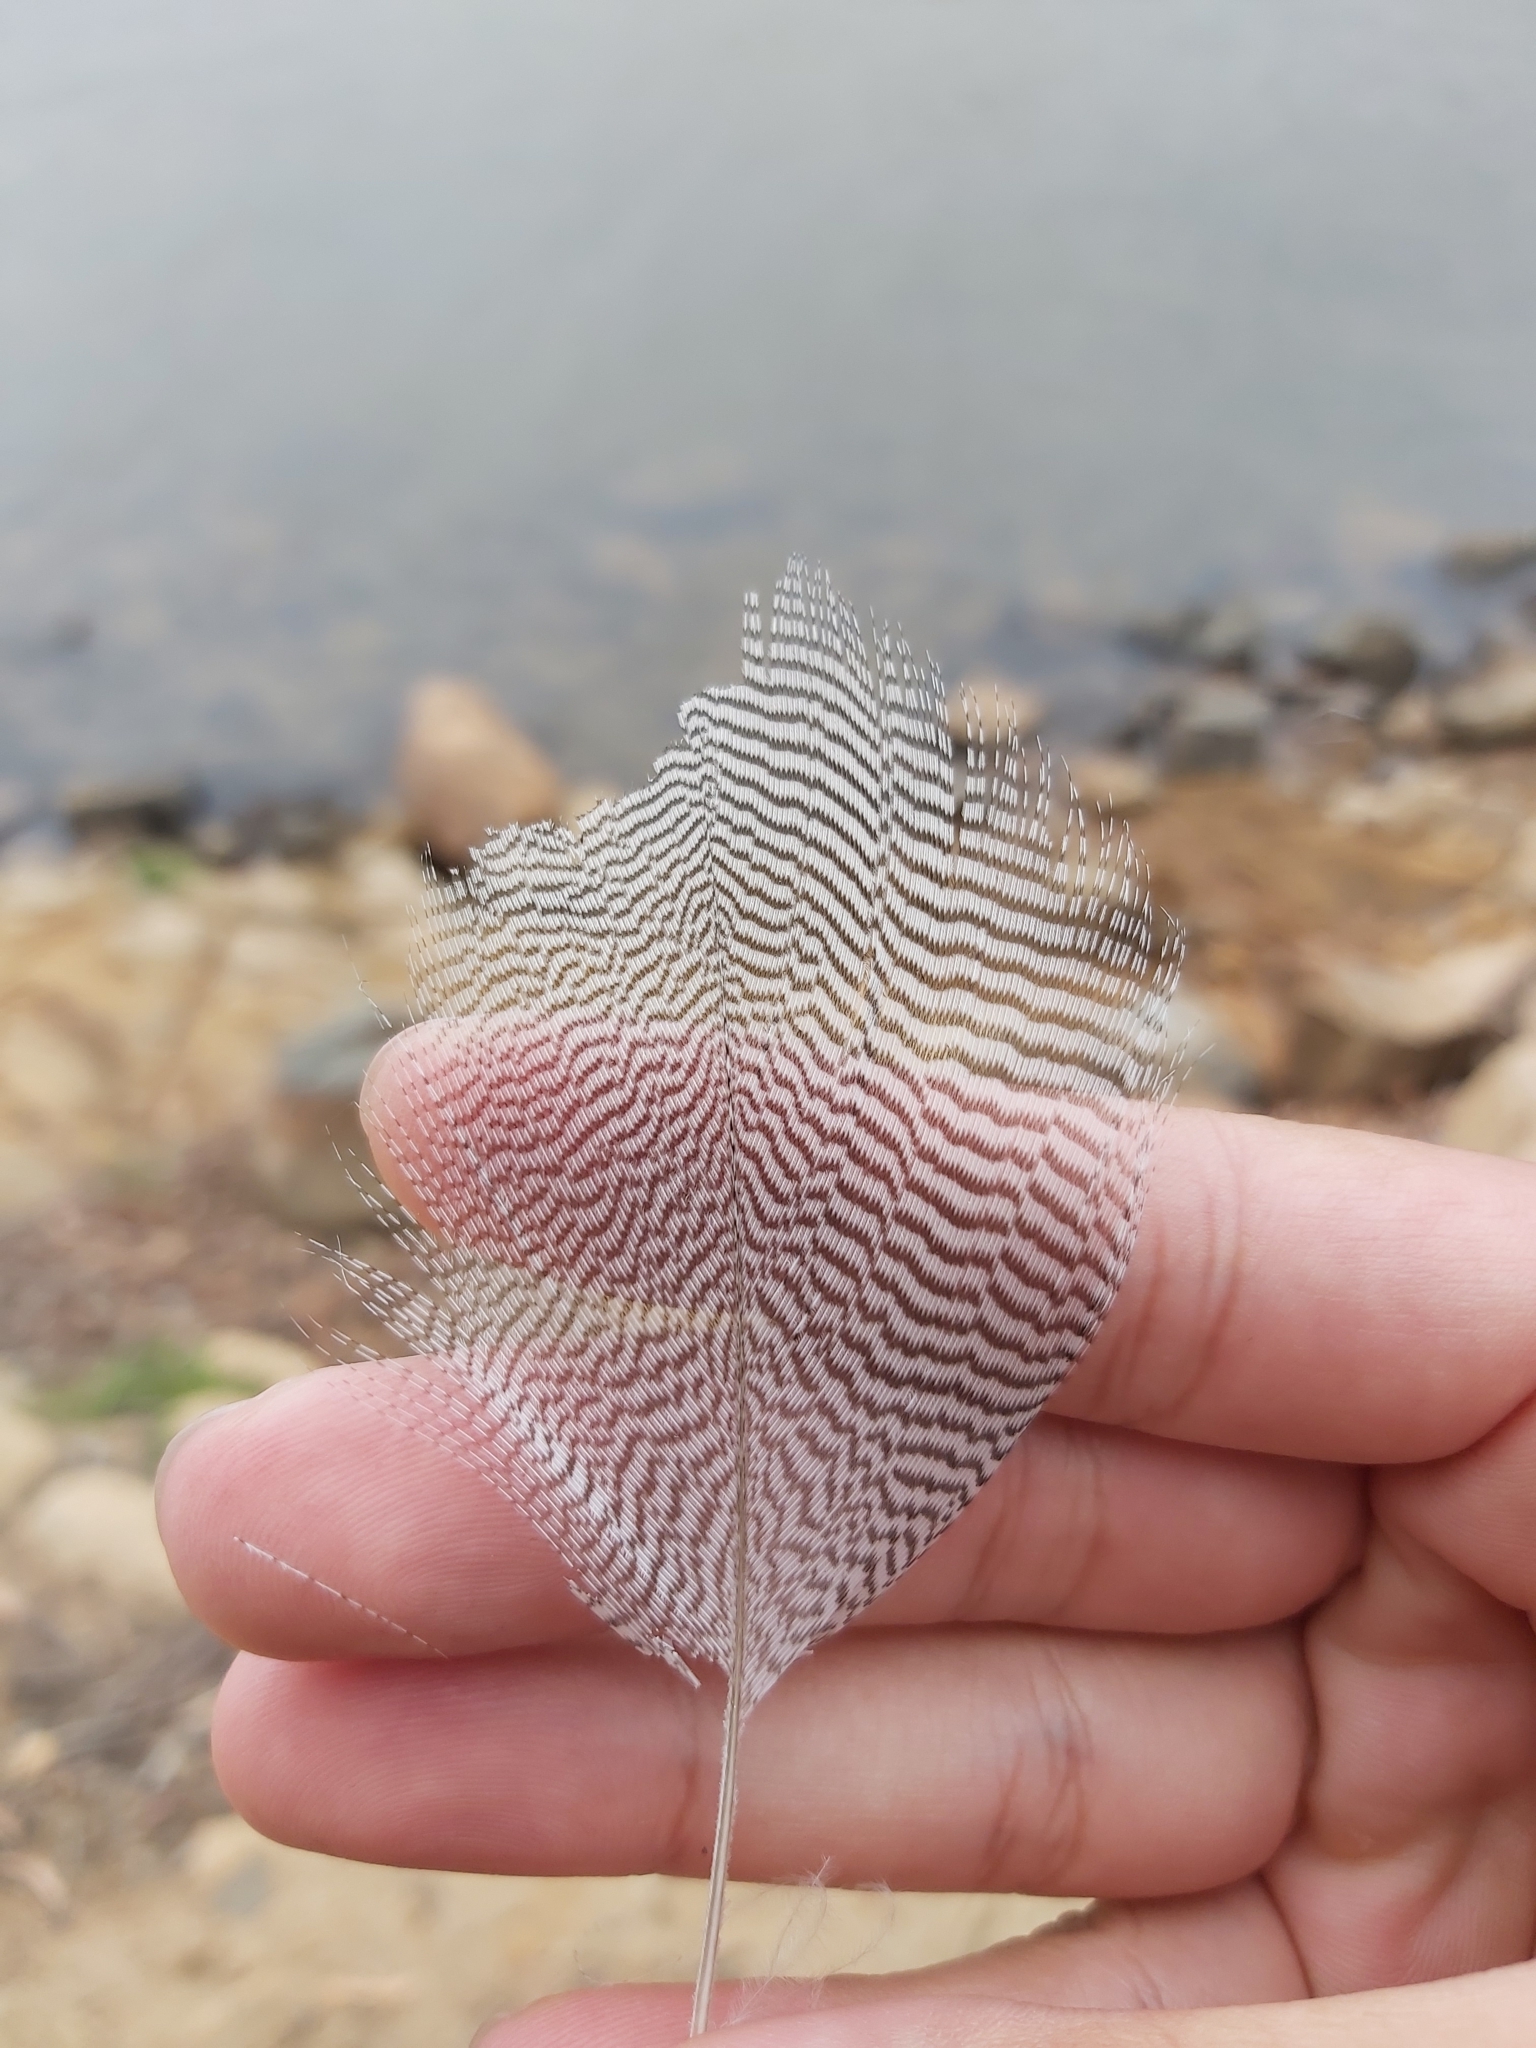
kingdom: Animalia
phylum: Chordata
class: Aves
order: Anseriformes
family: Anatidae
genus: Chenonetta
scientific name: Chenonetta jubata
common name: Maned duck
